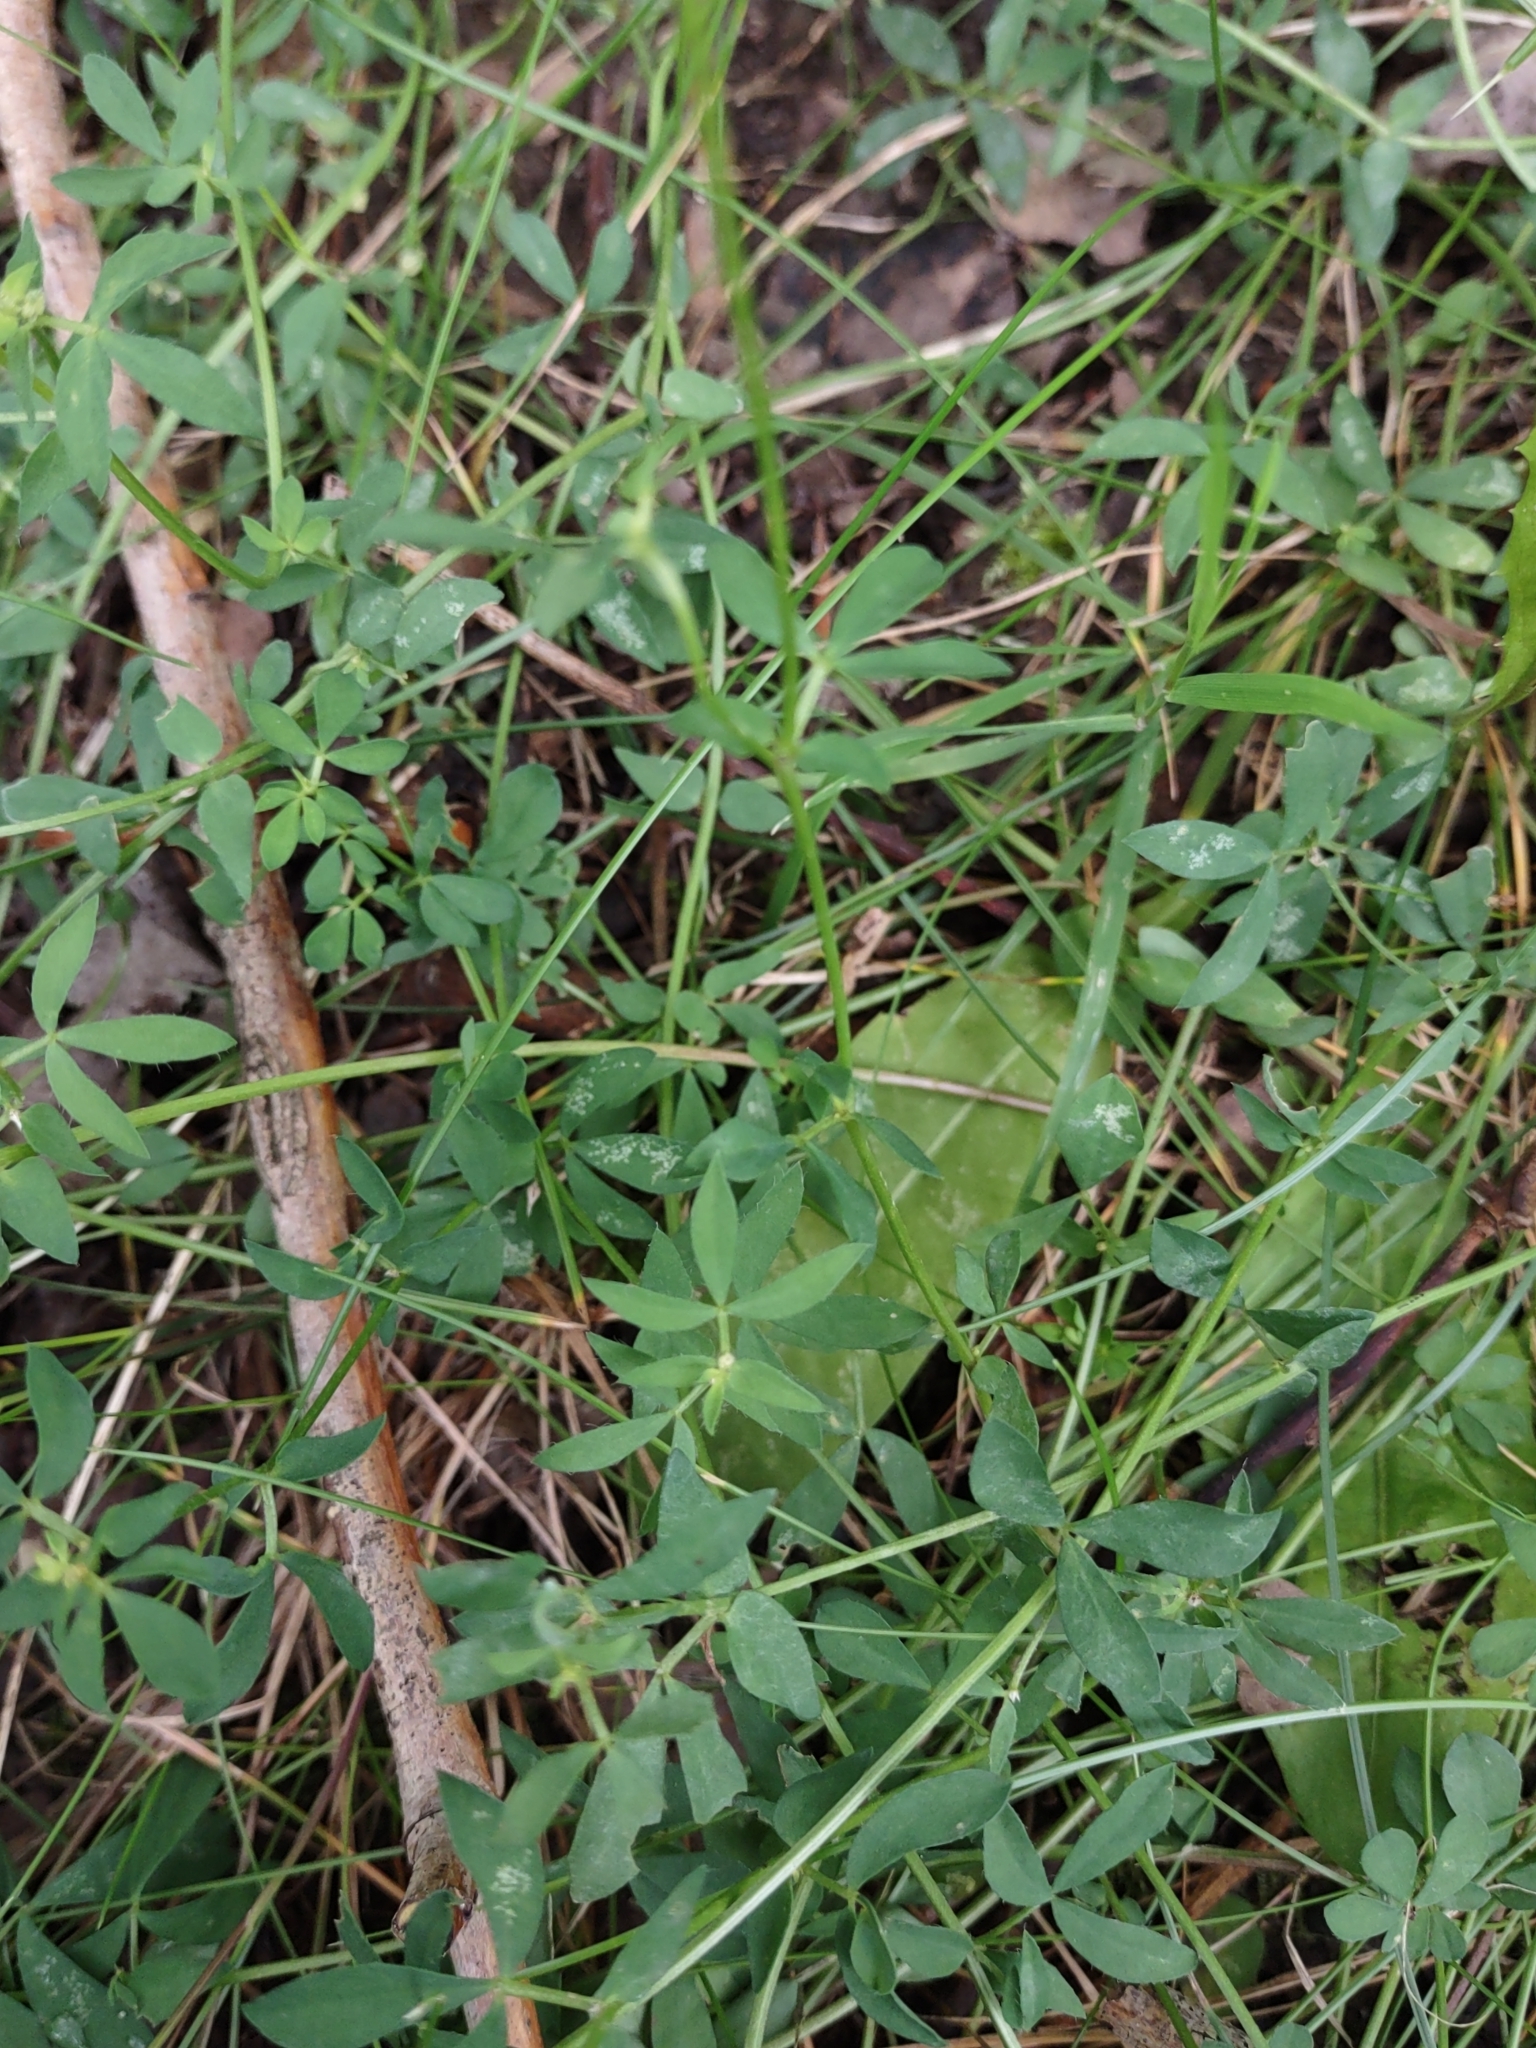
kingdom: Plantae
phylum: Tracheophyta
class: Magnoliopsida
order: Fabales
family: Fabaceae
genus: Lotus
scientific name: Lotus corniculatus
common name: Common bird's-foot-trefoil
